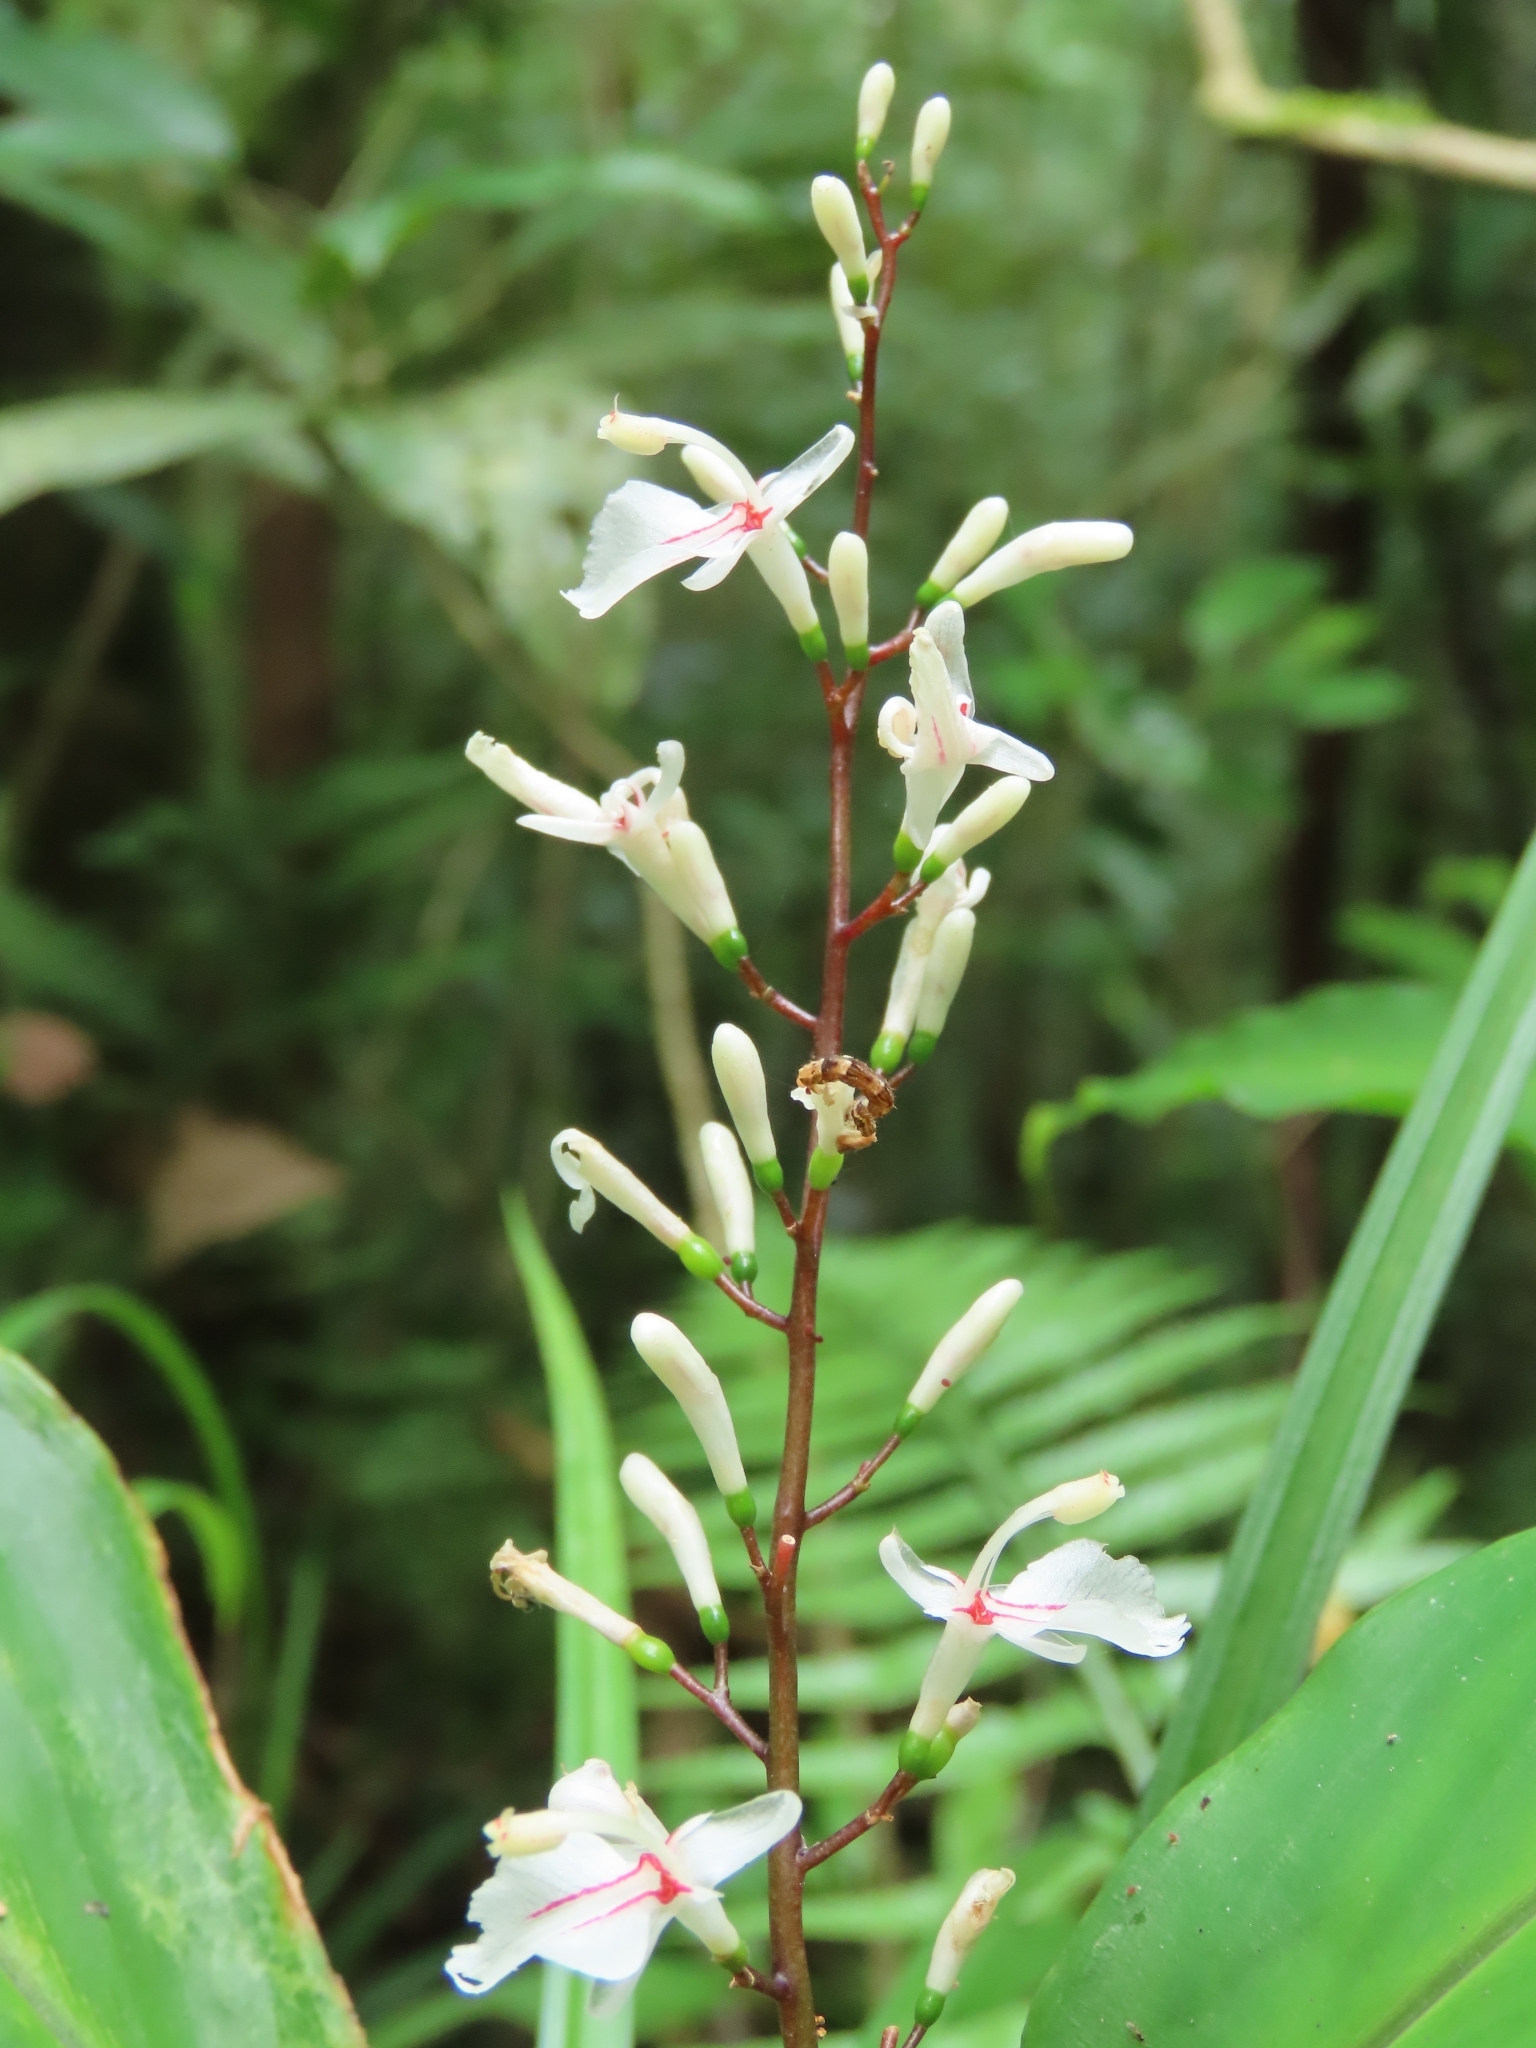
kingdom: Plantae
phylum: Tracheophyta
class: Liliopsida
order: Zingiberales
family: Zingiberaceae
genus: Alpinia
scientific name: Alpinia intermedia
